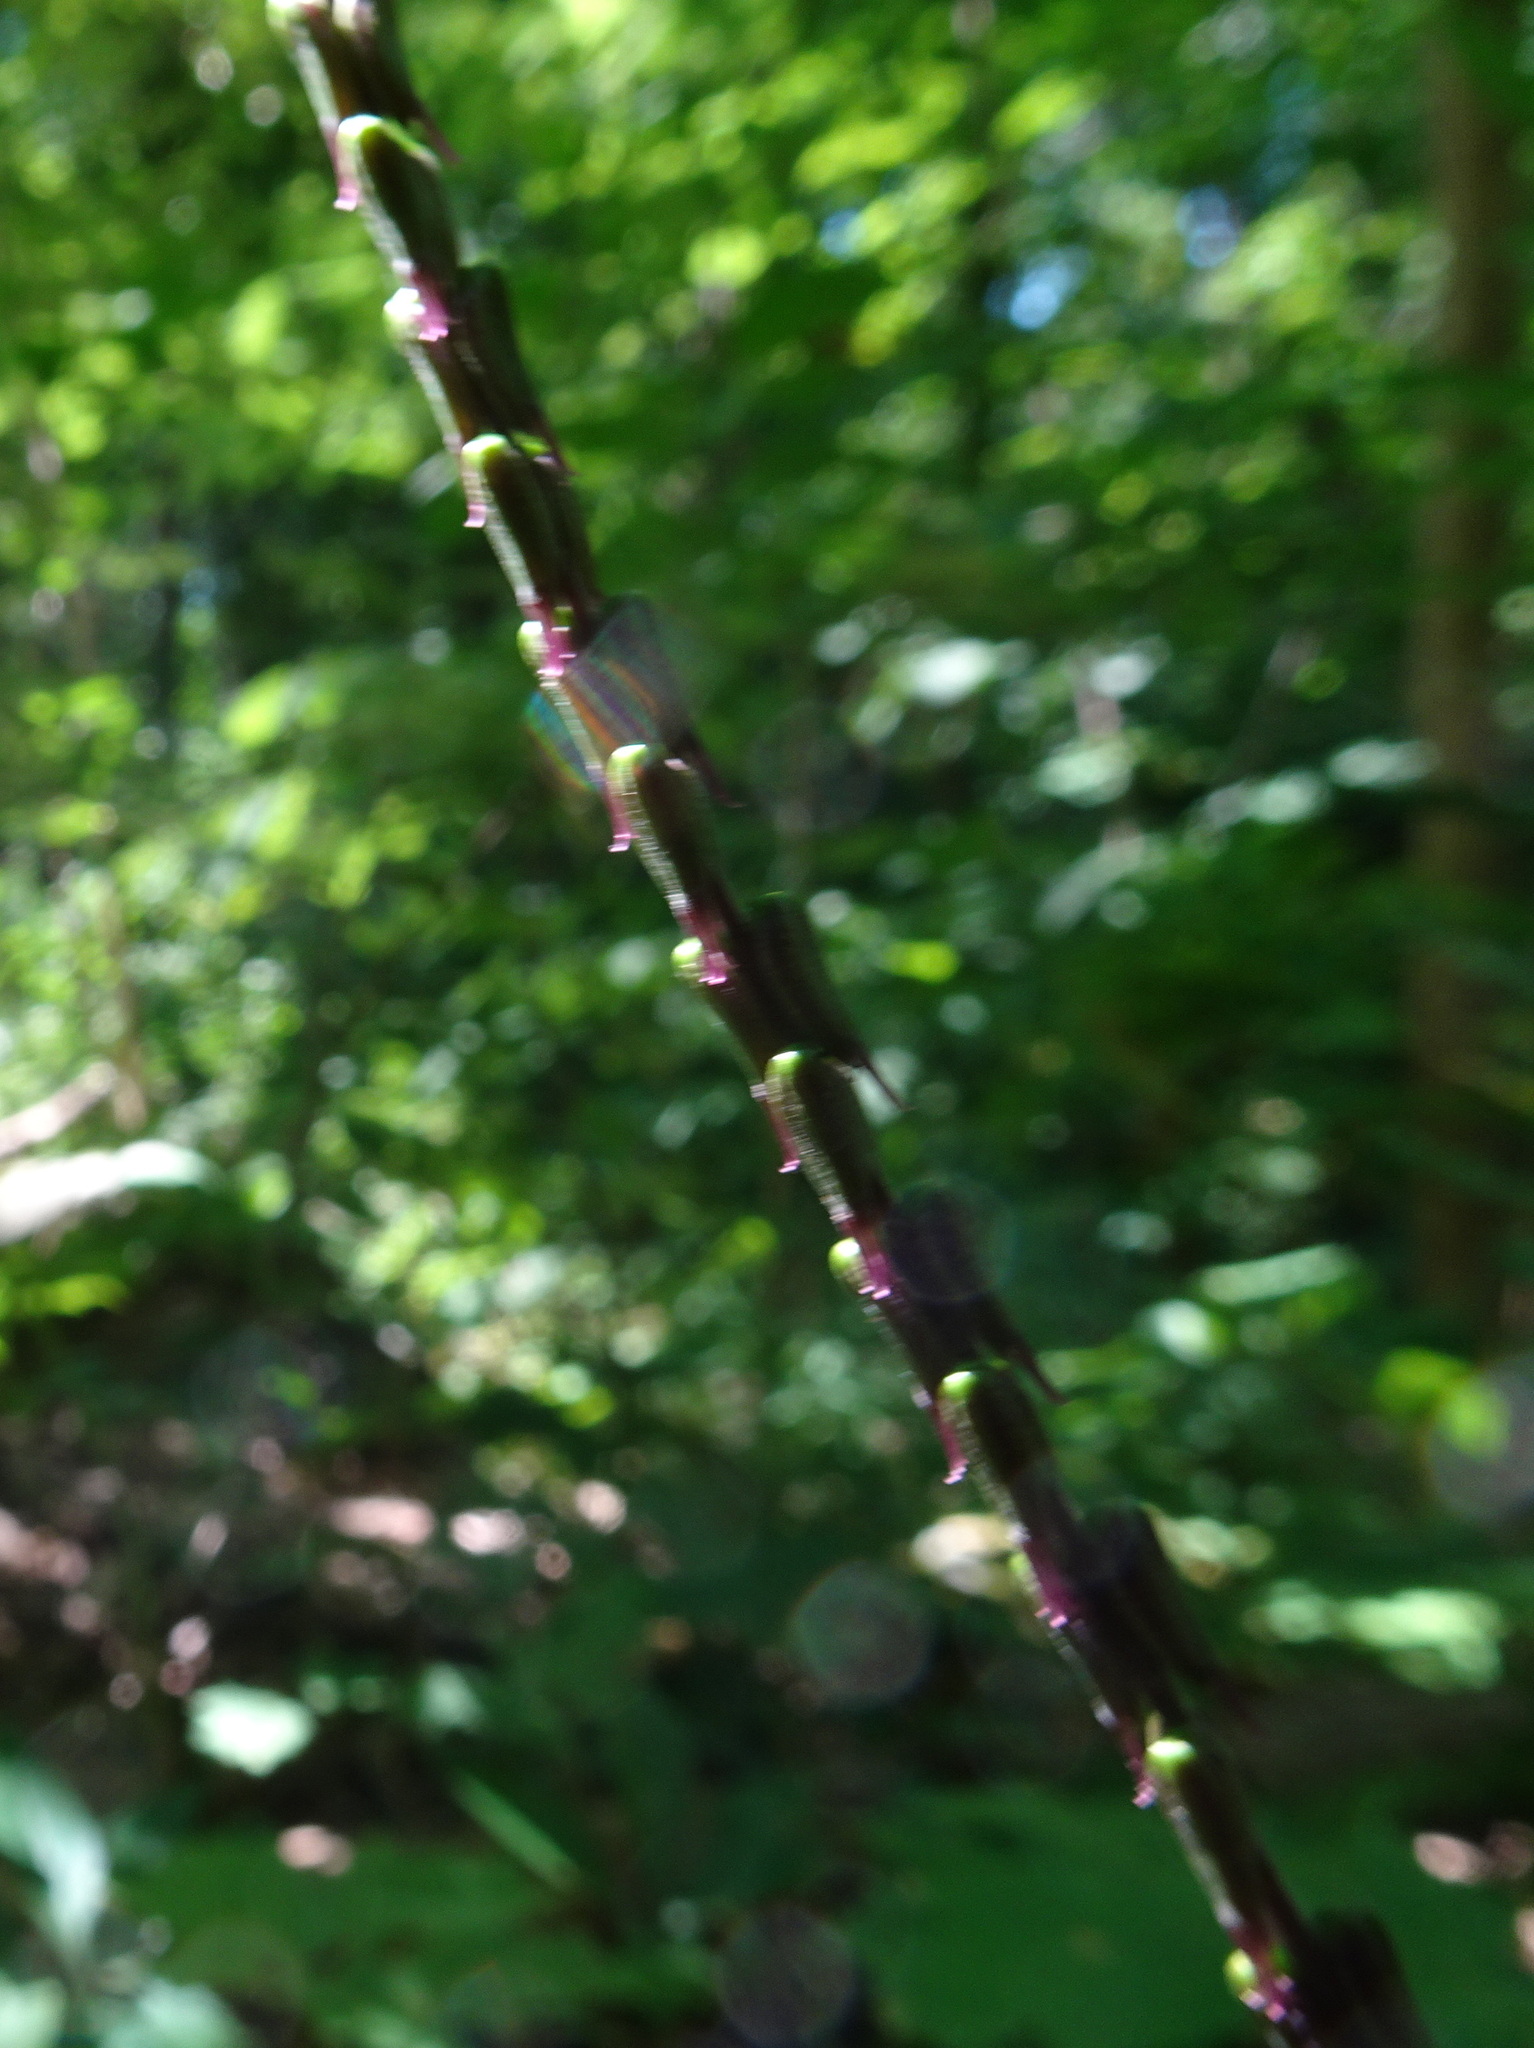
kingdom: Plantae
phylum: Tracheophyta
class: Magnoliopsida
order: Lamiales
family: Phrymaceae
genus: Phryma
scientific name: Phryma leptostachya
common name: American lopseed
